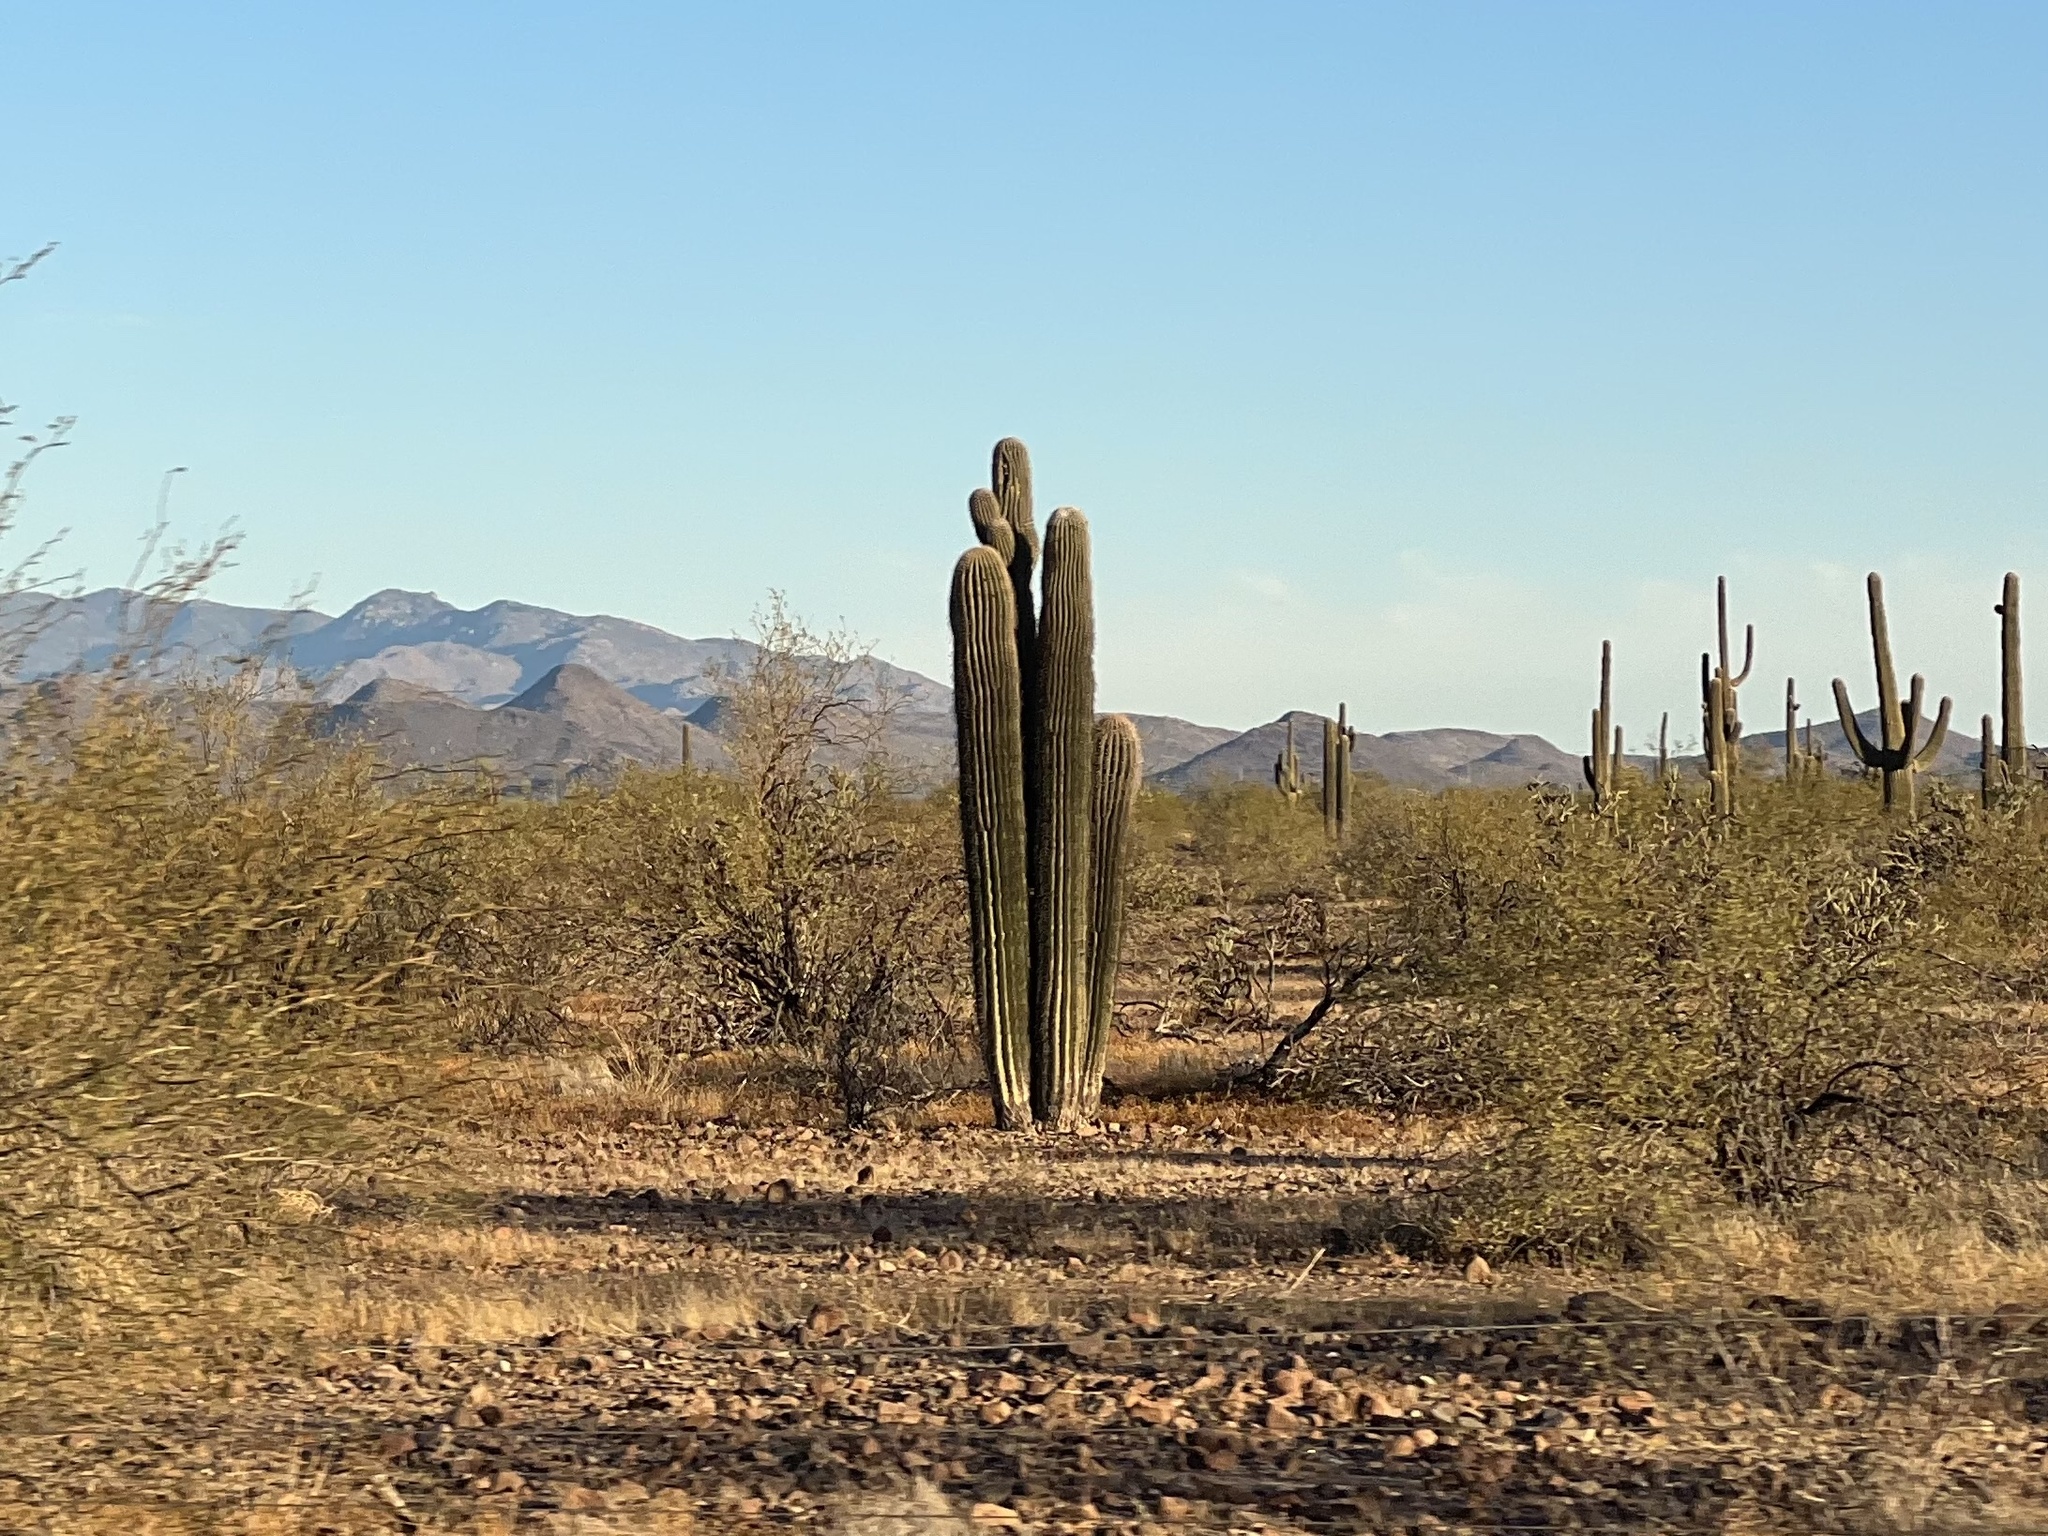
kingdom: Plantae
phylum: Tracheophyta
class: Magnoliopsida
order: Caryophyllales
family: Cactaceae
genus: Carnegiea
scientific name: Carnegiea gigantea
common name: Saguaro
